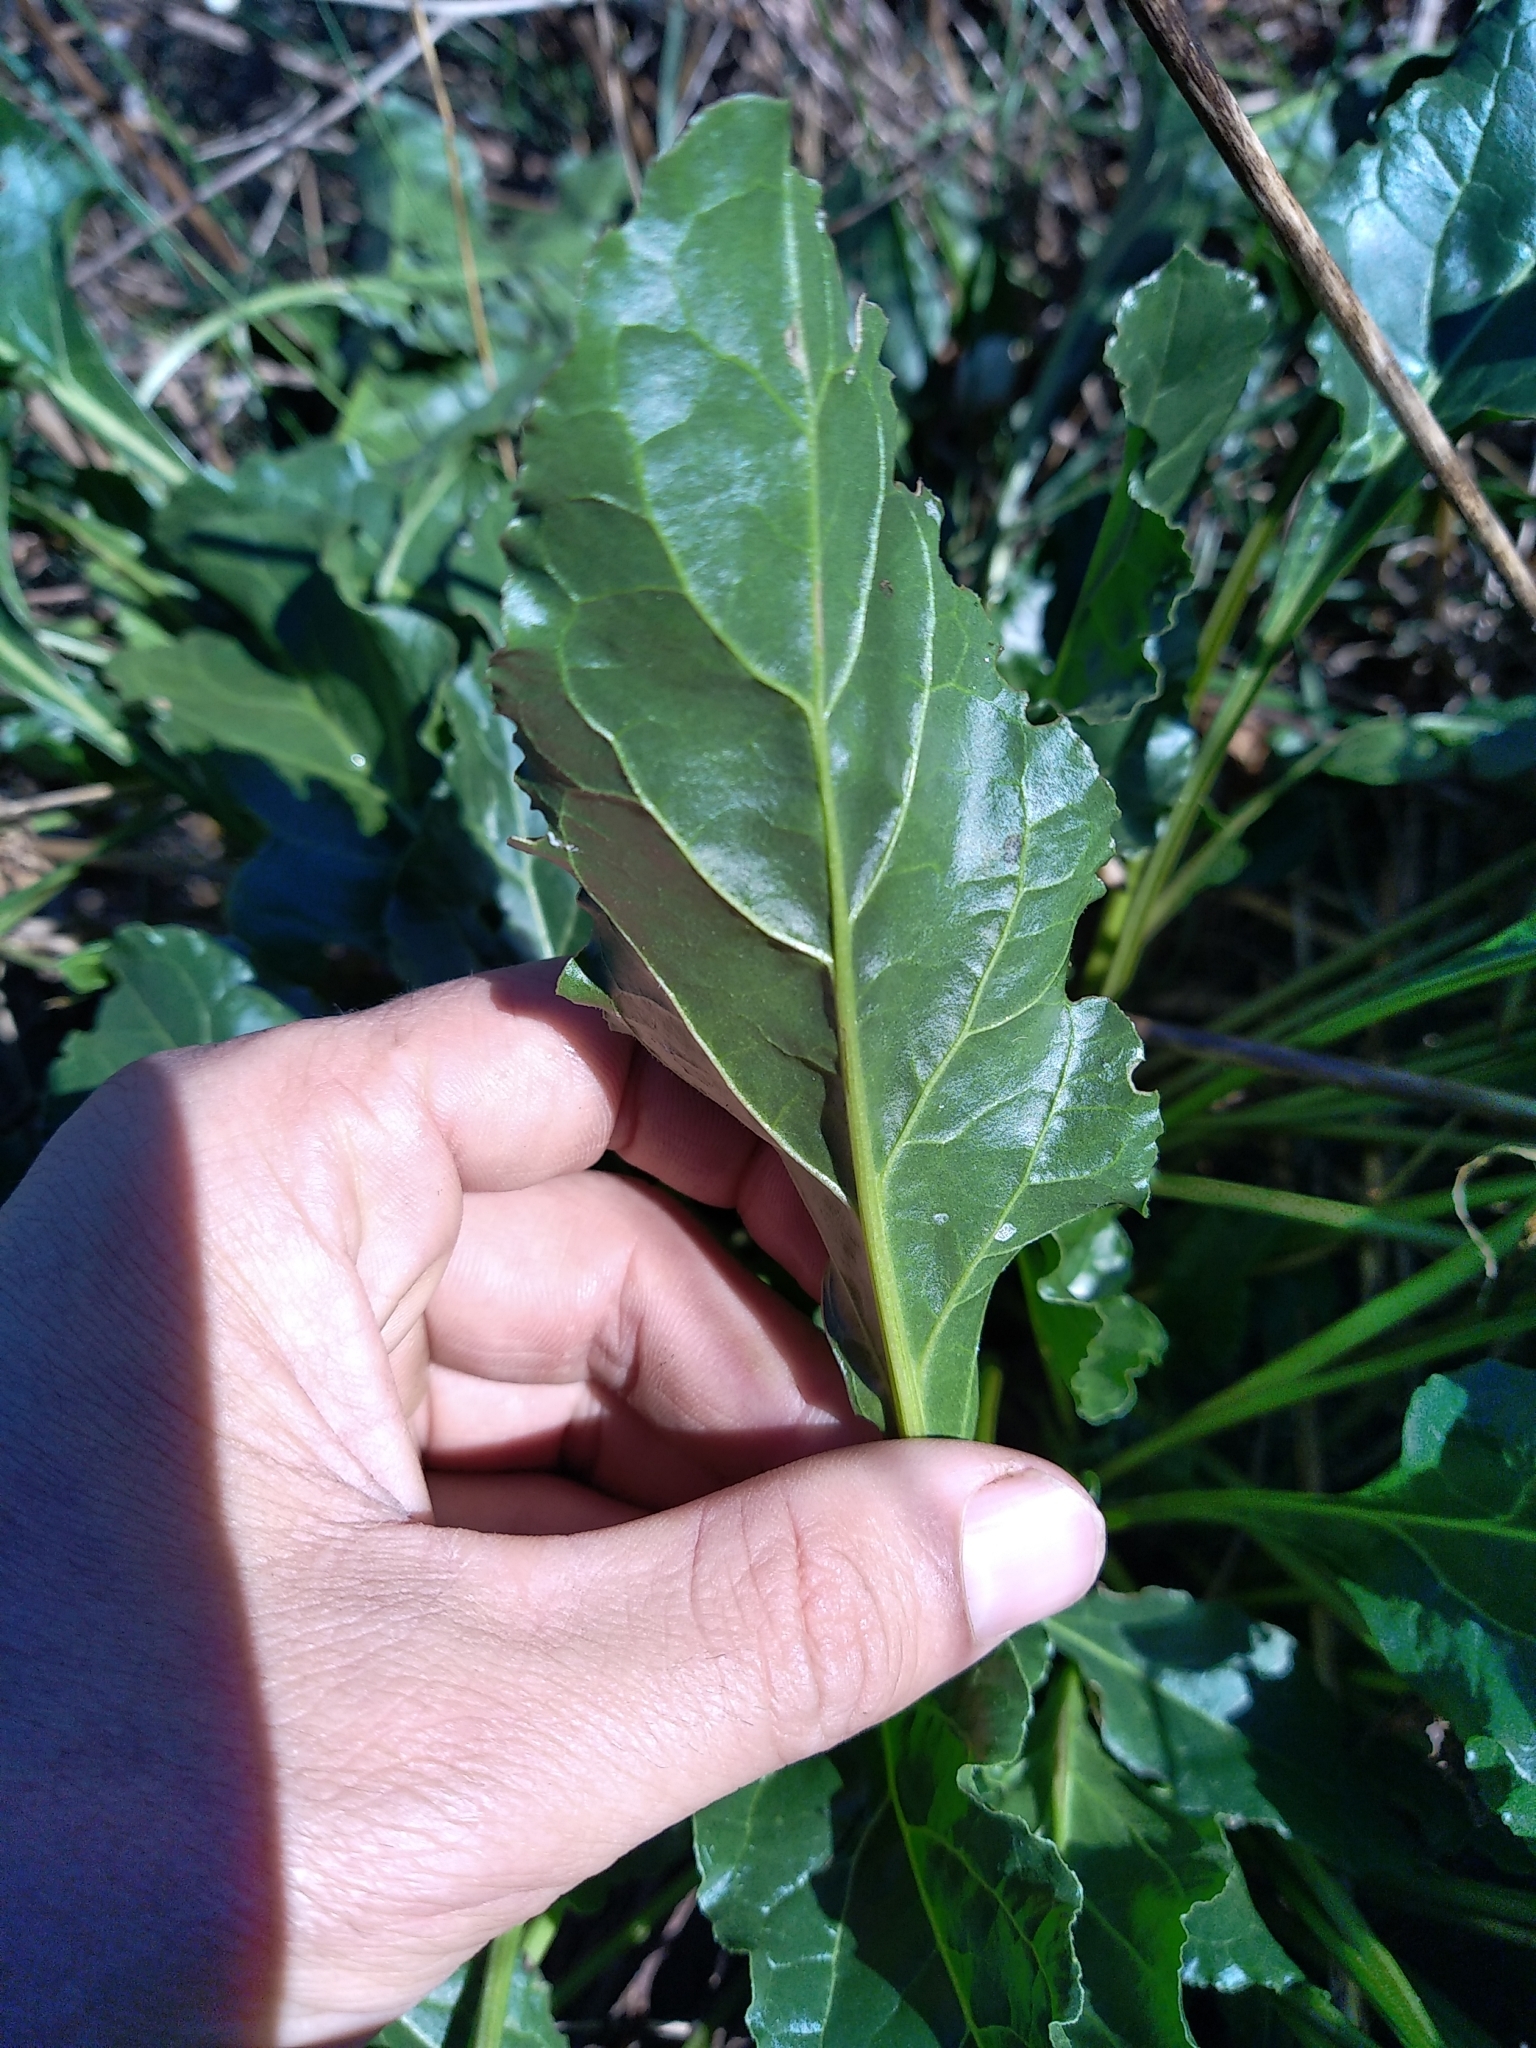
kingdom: Plantae
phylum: Tracheophyta
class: Magnoliopsida
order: Caryophyllales
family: Amaranthaceae
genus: Beta
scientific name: Beta vulgaris
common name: Beet
